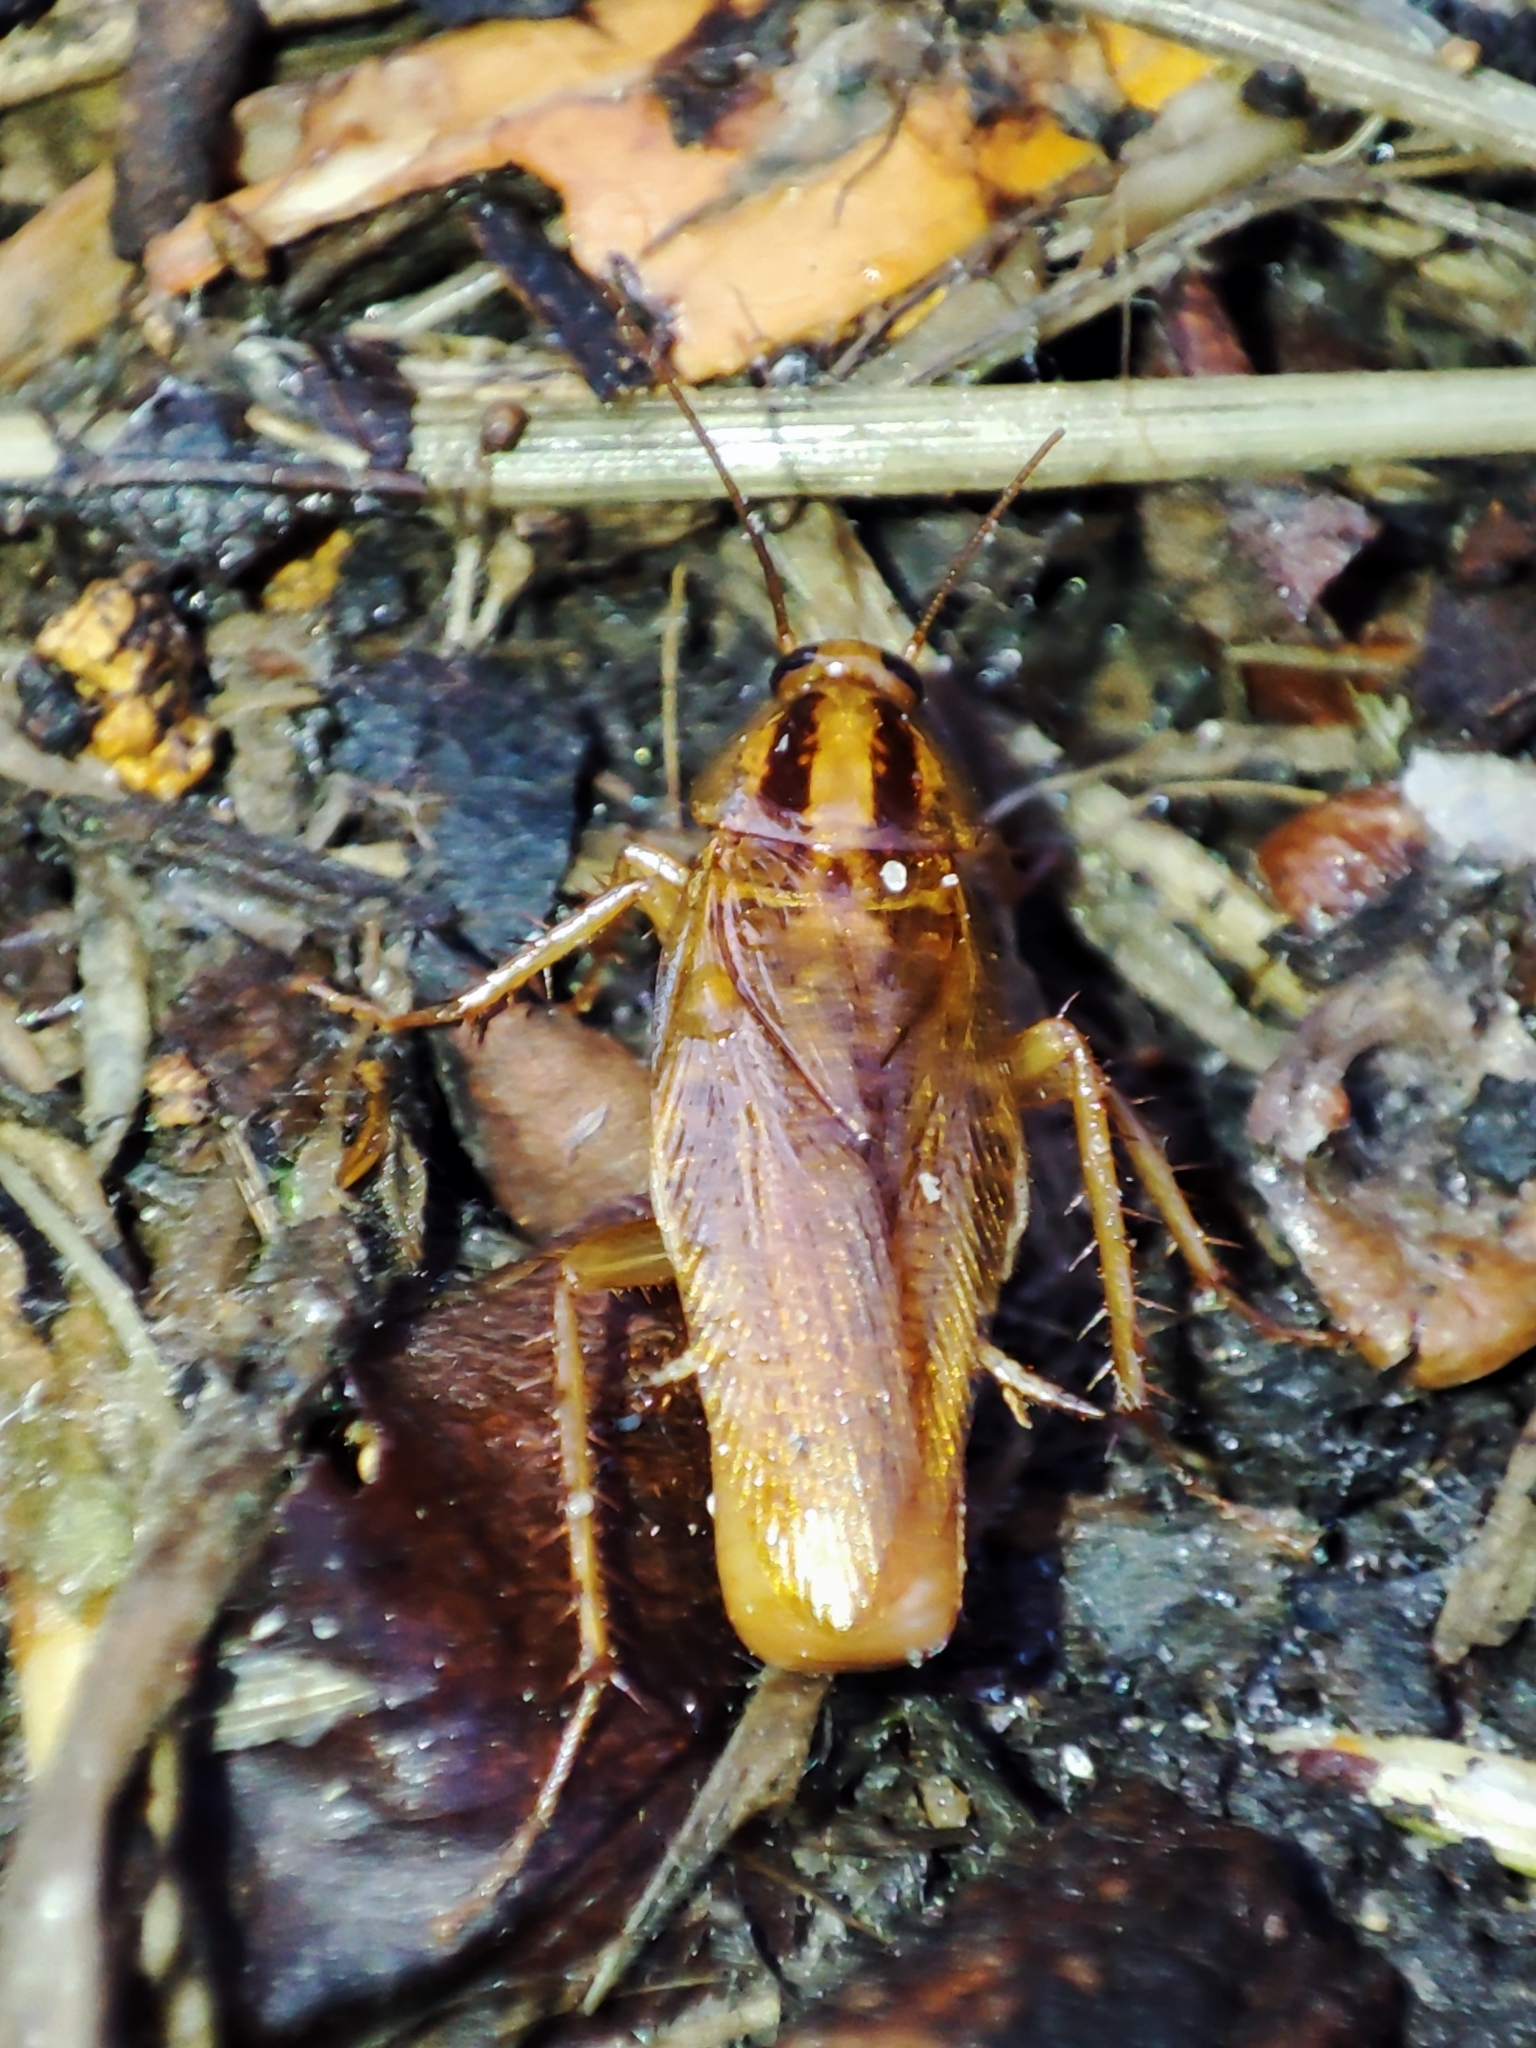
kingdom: Animalia
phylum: Arthropoda
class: Insecta
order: Blattodea
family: Ectobiidae
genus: Blattella
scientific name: Blattella germanica
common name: German cockroach
